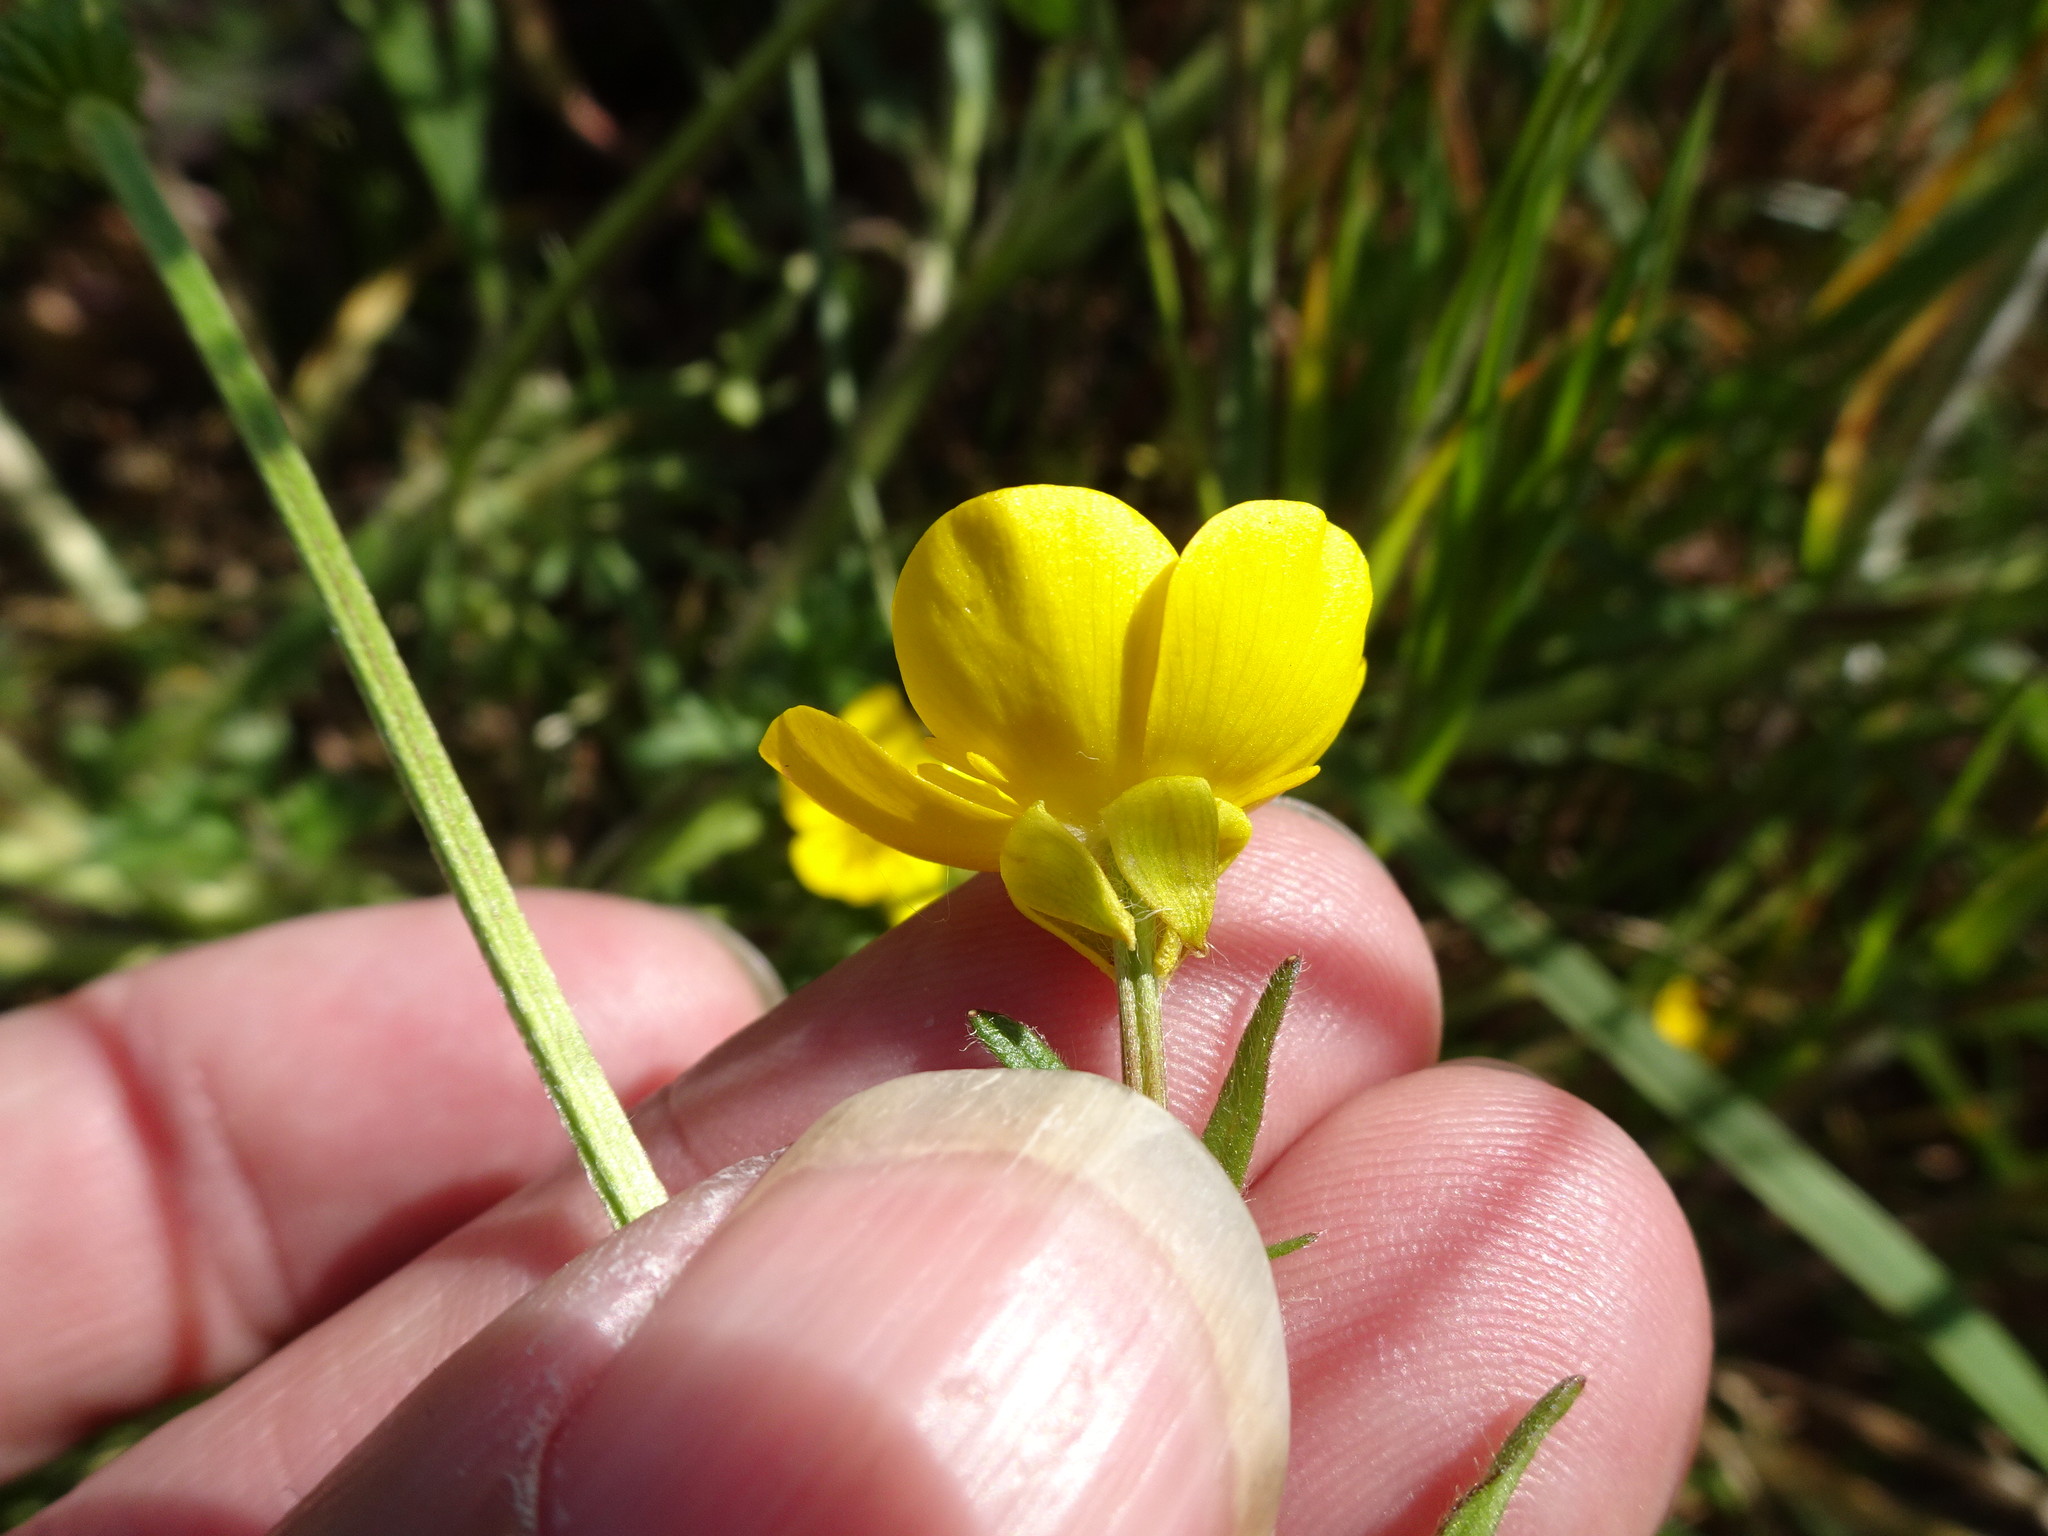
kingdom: Plantae
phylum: Tracheophyta
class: Magnoliopsida
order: Ranunculales
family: Ranunculaceae
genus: Ranunculus
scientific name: Ranunculus bulbosus
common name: Bulbous buttercup
